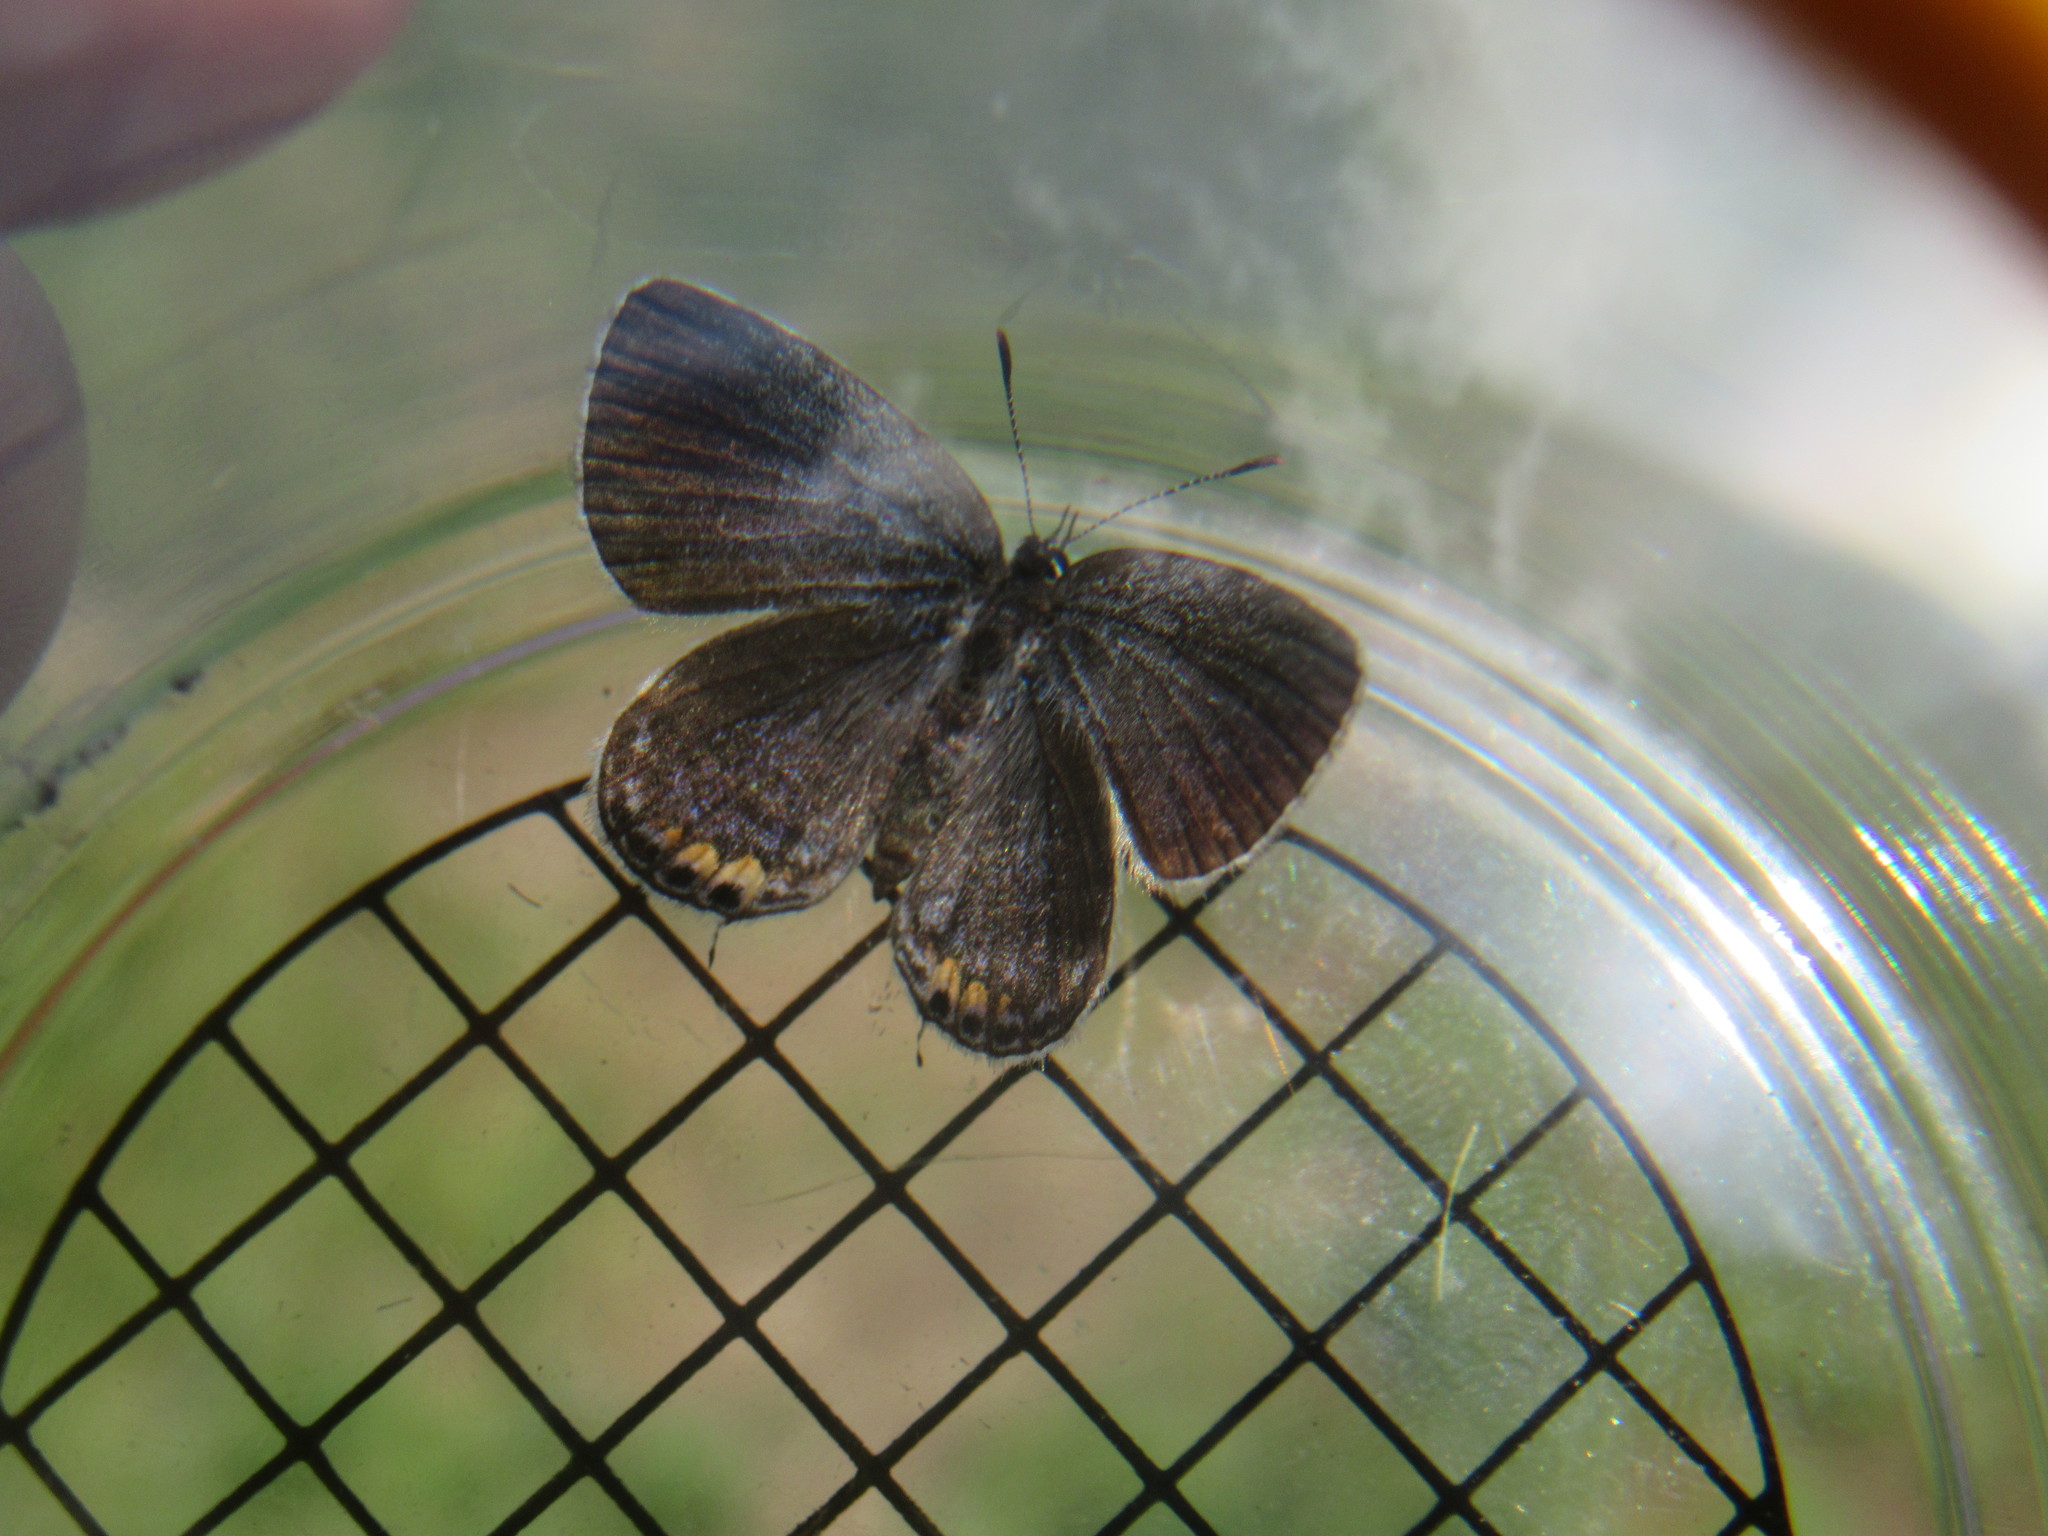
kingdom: Animalia
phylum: Arthropoda
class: Insecta
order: Lepidoptera
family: Lycaenidae
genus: Elkalyce
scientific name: Elkalyce comyntas
